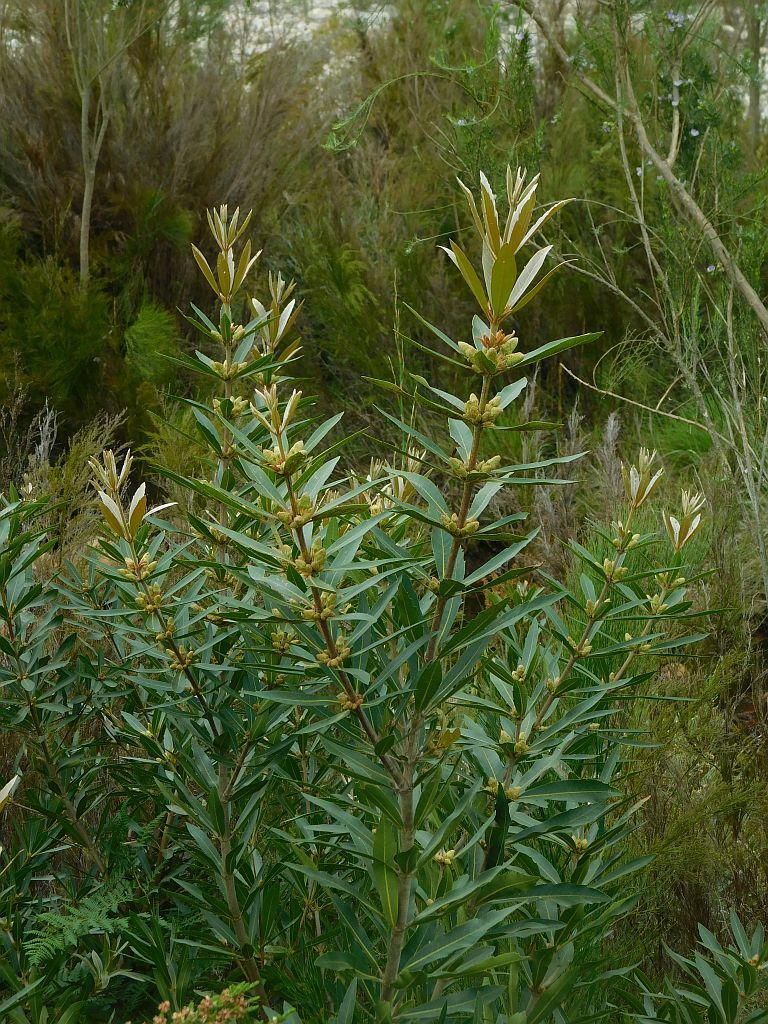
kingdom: Plantae
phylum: Tracheophyta
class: Magnoliopsida
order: Proteales
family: Proteaceae
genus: Brabejum
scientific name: Brabejum stellatifolium
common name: Wild almond
